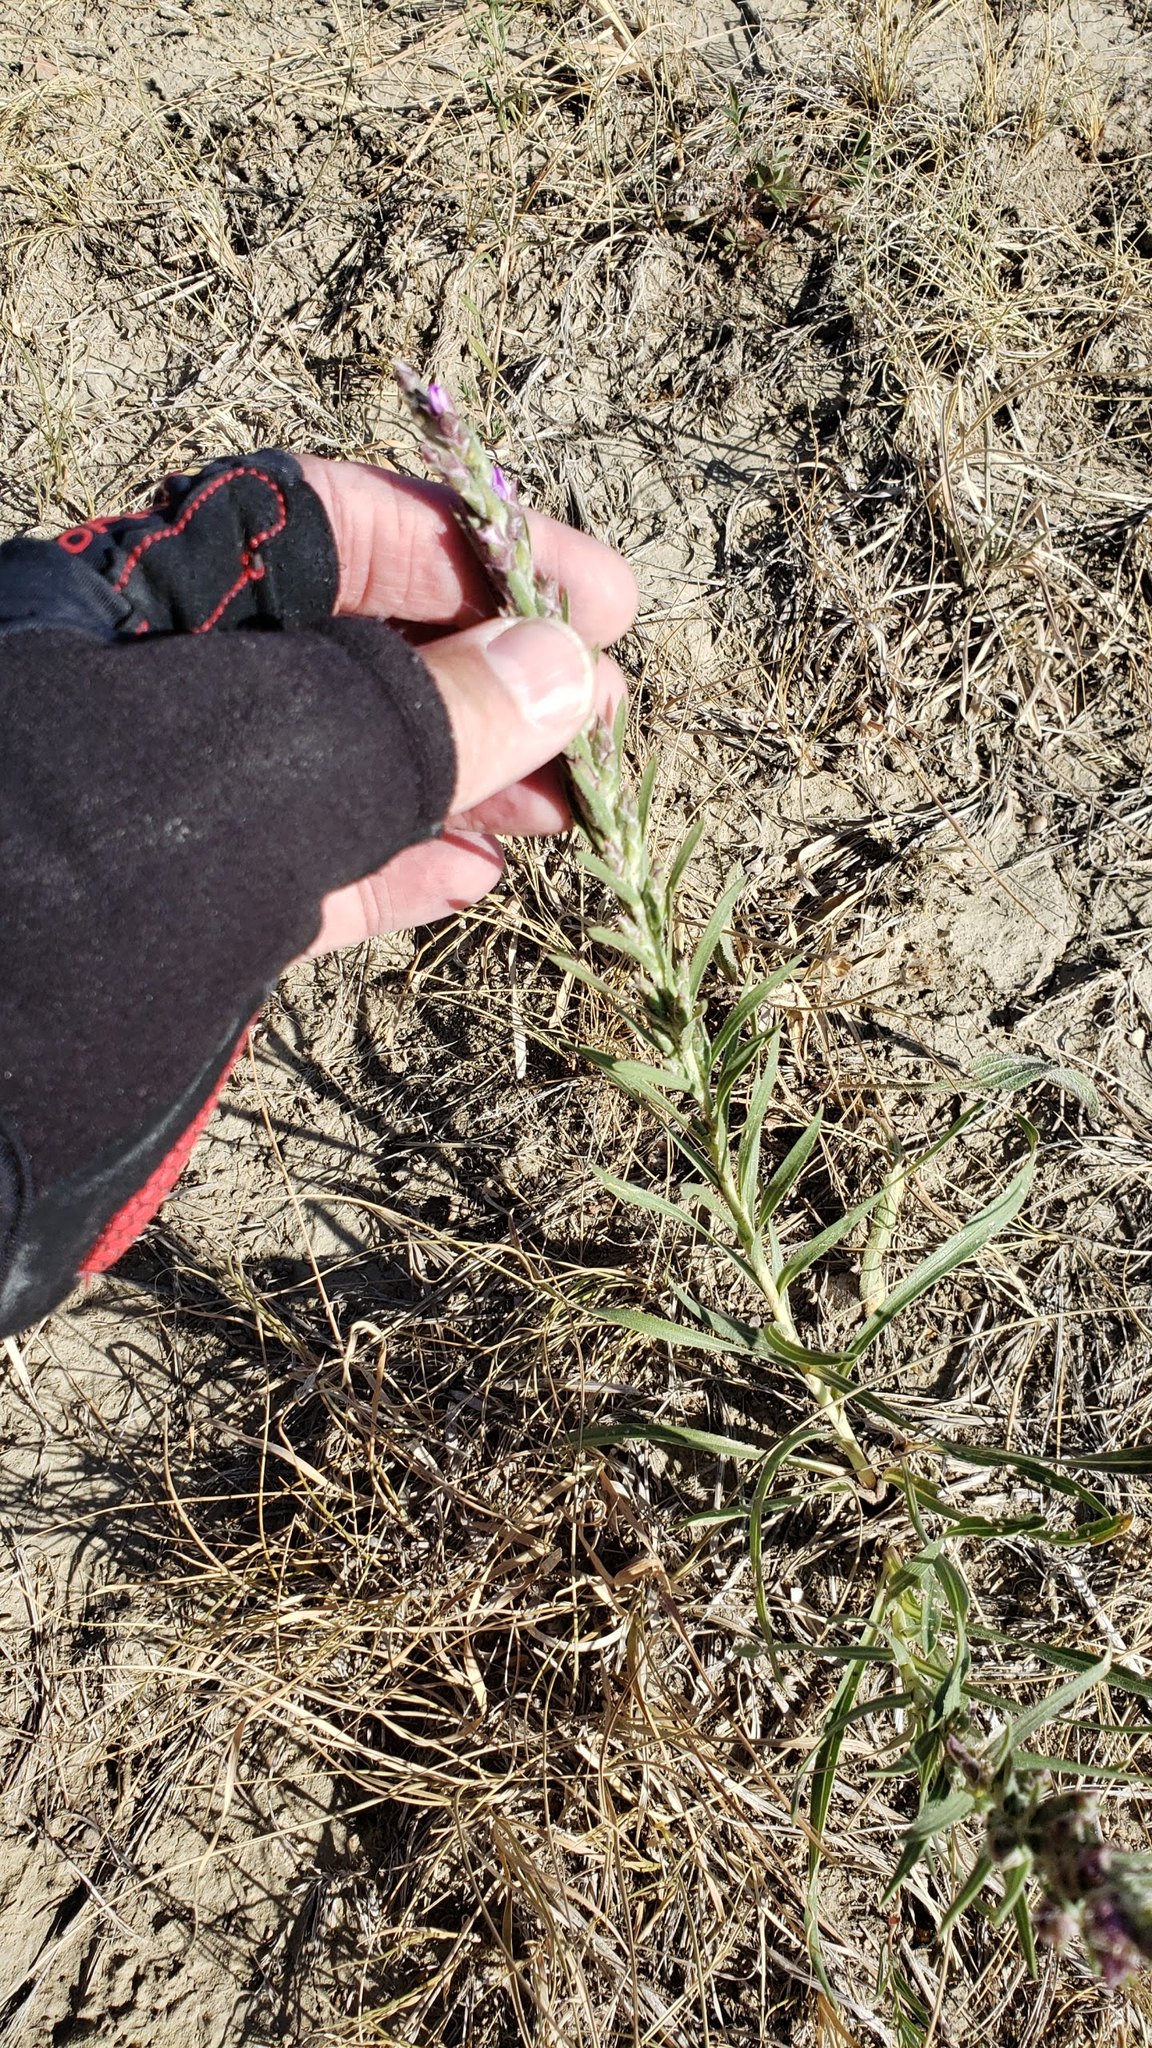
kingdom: Plantae
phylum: Tracheophyta
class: Magnoliopsida
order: Asterales
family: Asteraceae
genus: Liatris
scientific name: Liatris punctata
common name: Dotted gayfeather
